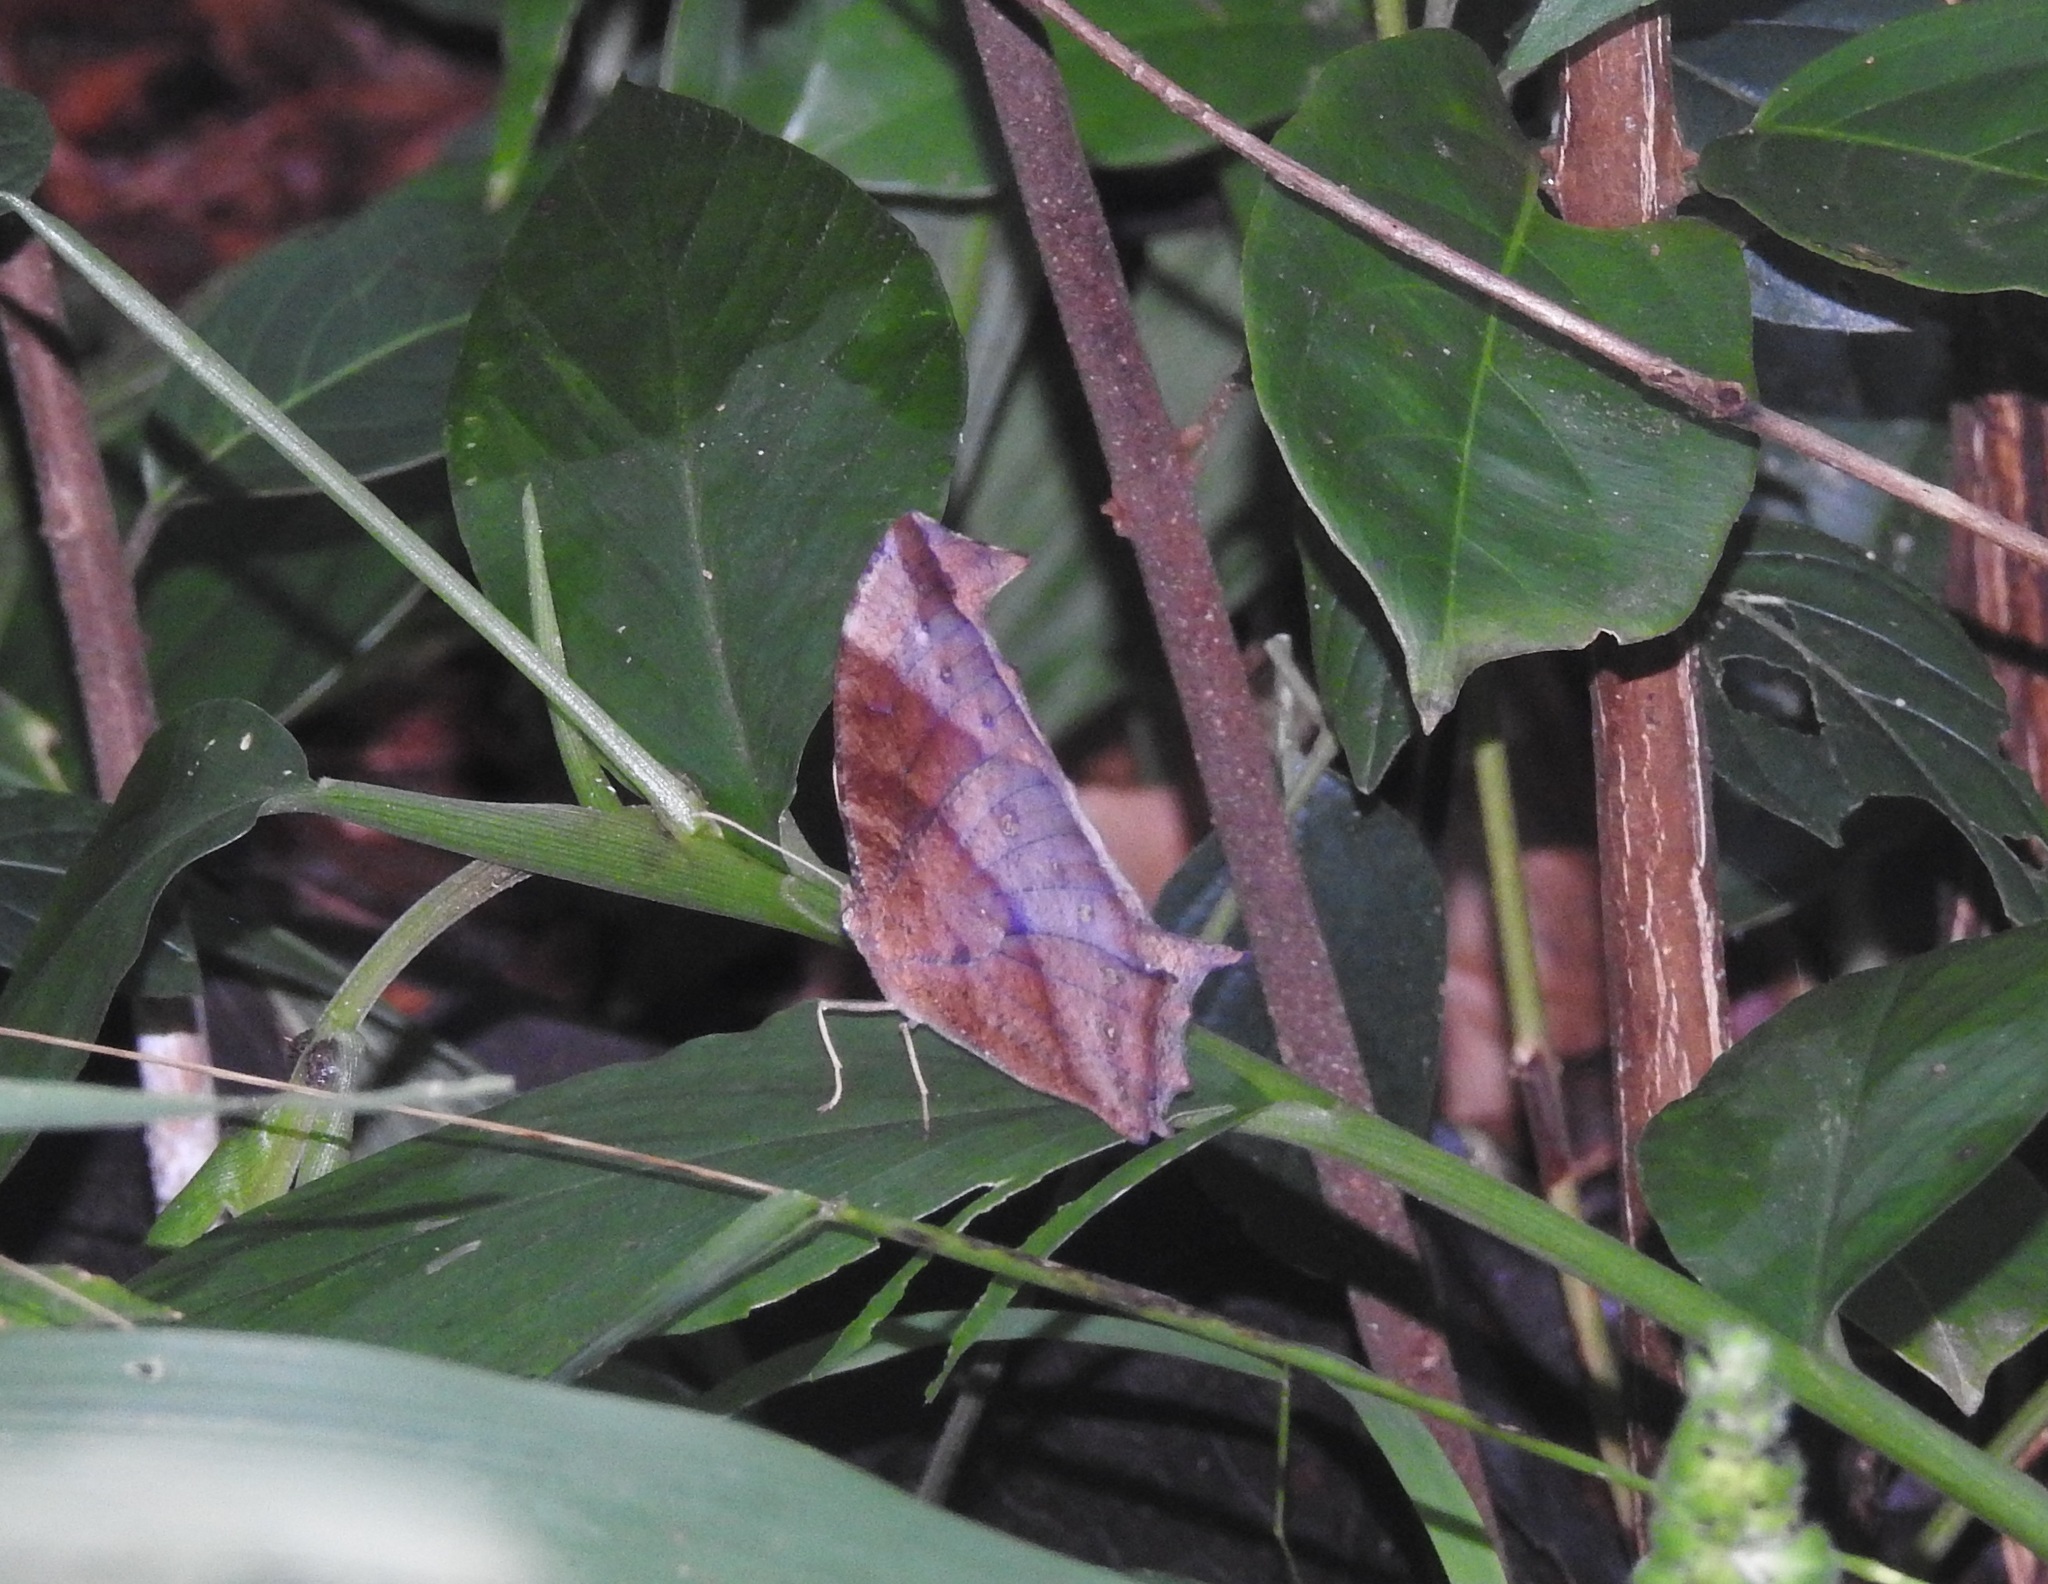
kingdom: Animalia
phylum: Arthropoda
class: Insecta
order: Lepidoptera
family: Nymphalidae
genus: Melanitis
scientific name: Melanitis phedima
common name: Dark evening brown
